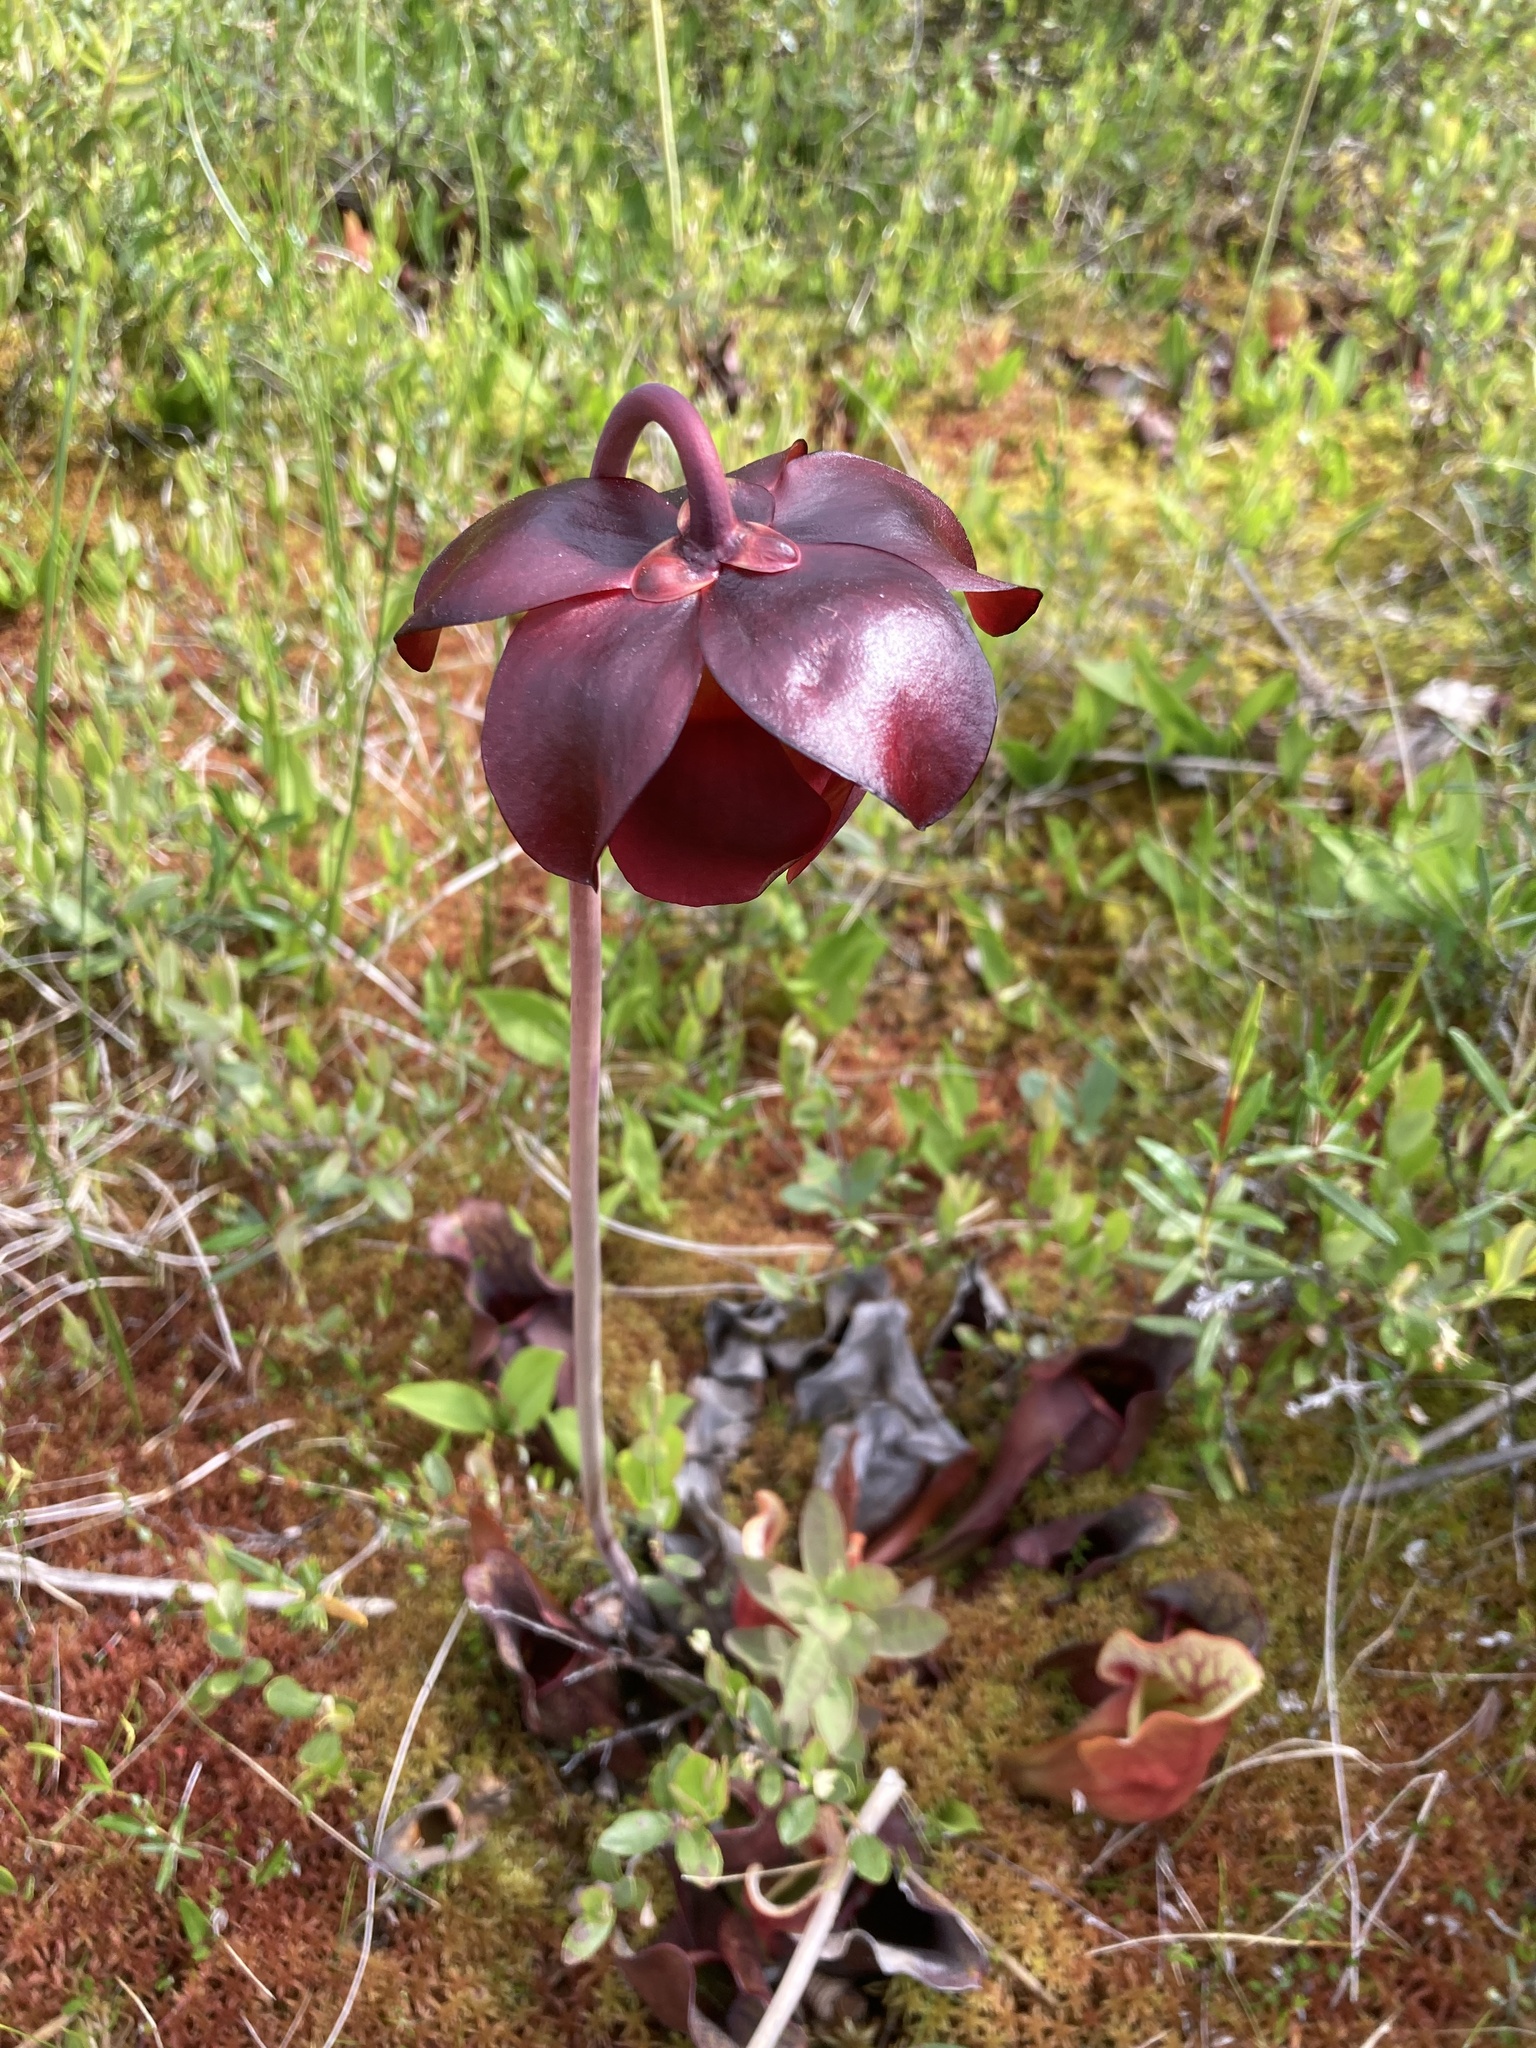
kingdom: Plantae
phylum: Tracheophyta
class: Magnoliopsida
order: Ericales
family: Sarraceniaceae
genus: Sarracenia
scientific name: Sarracenia purpurea
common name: Pitcherplant
